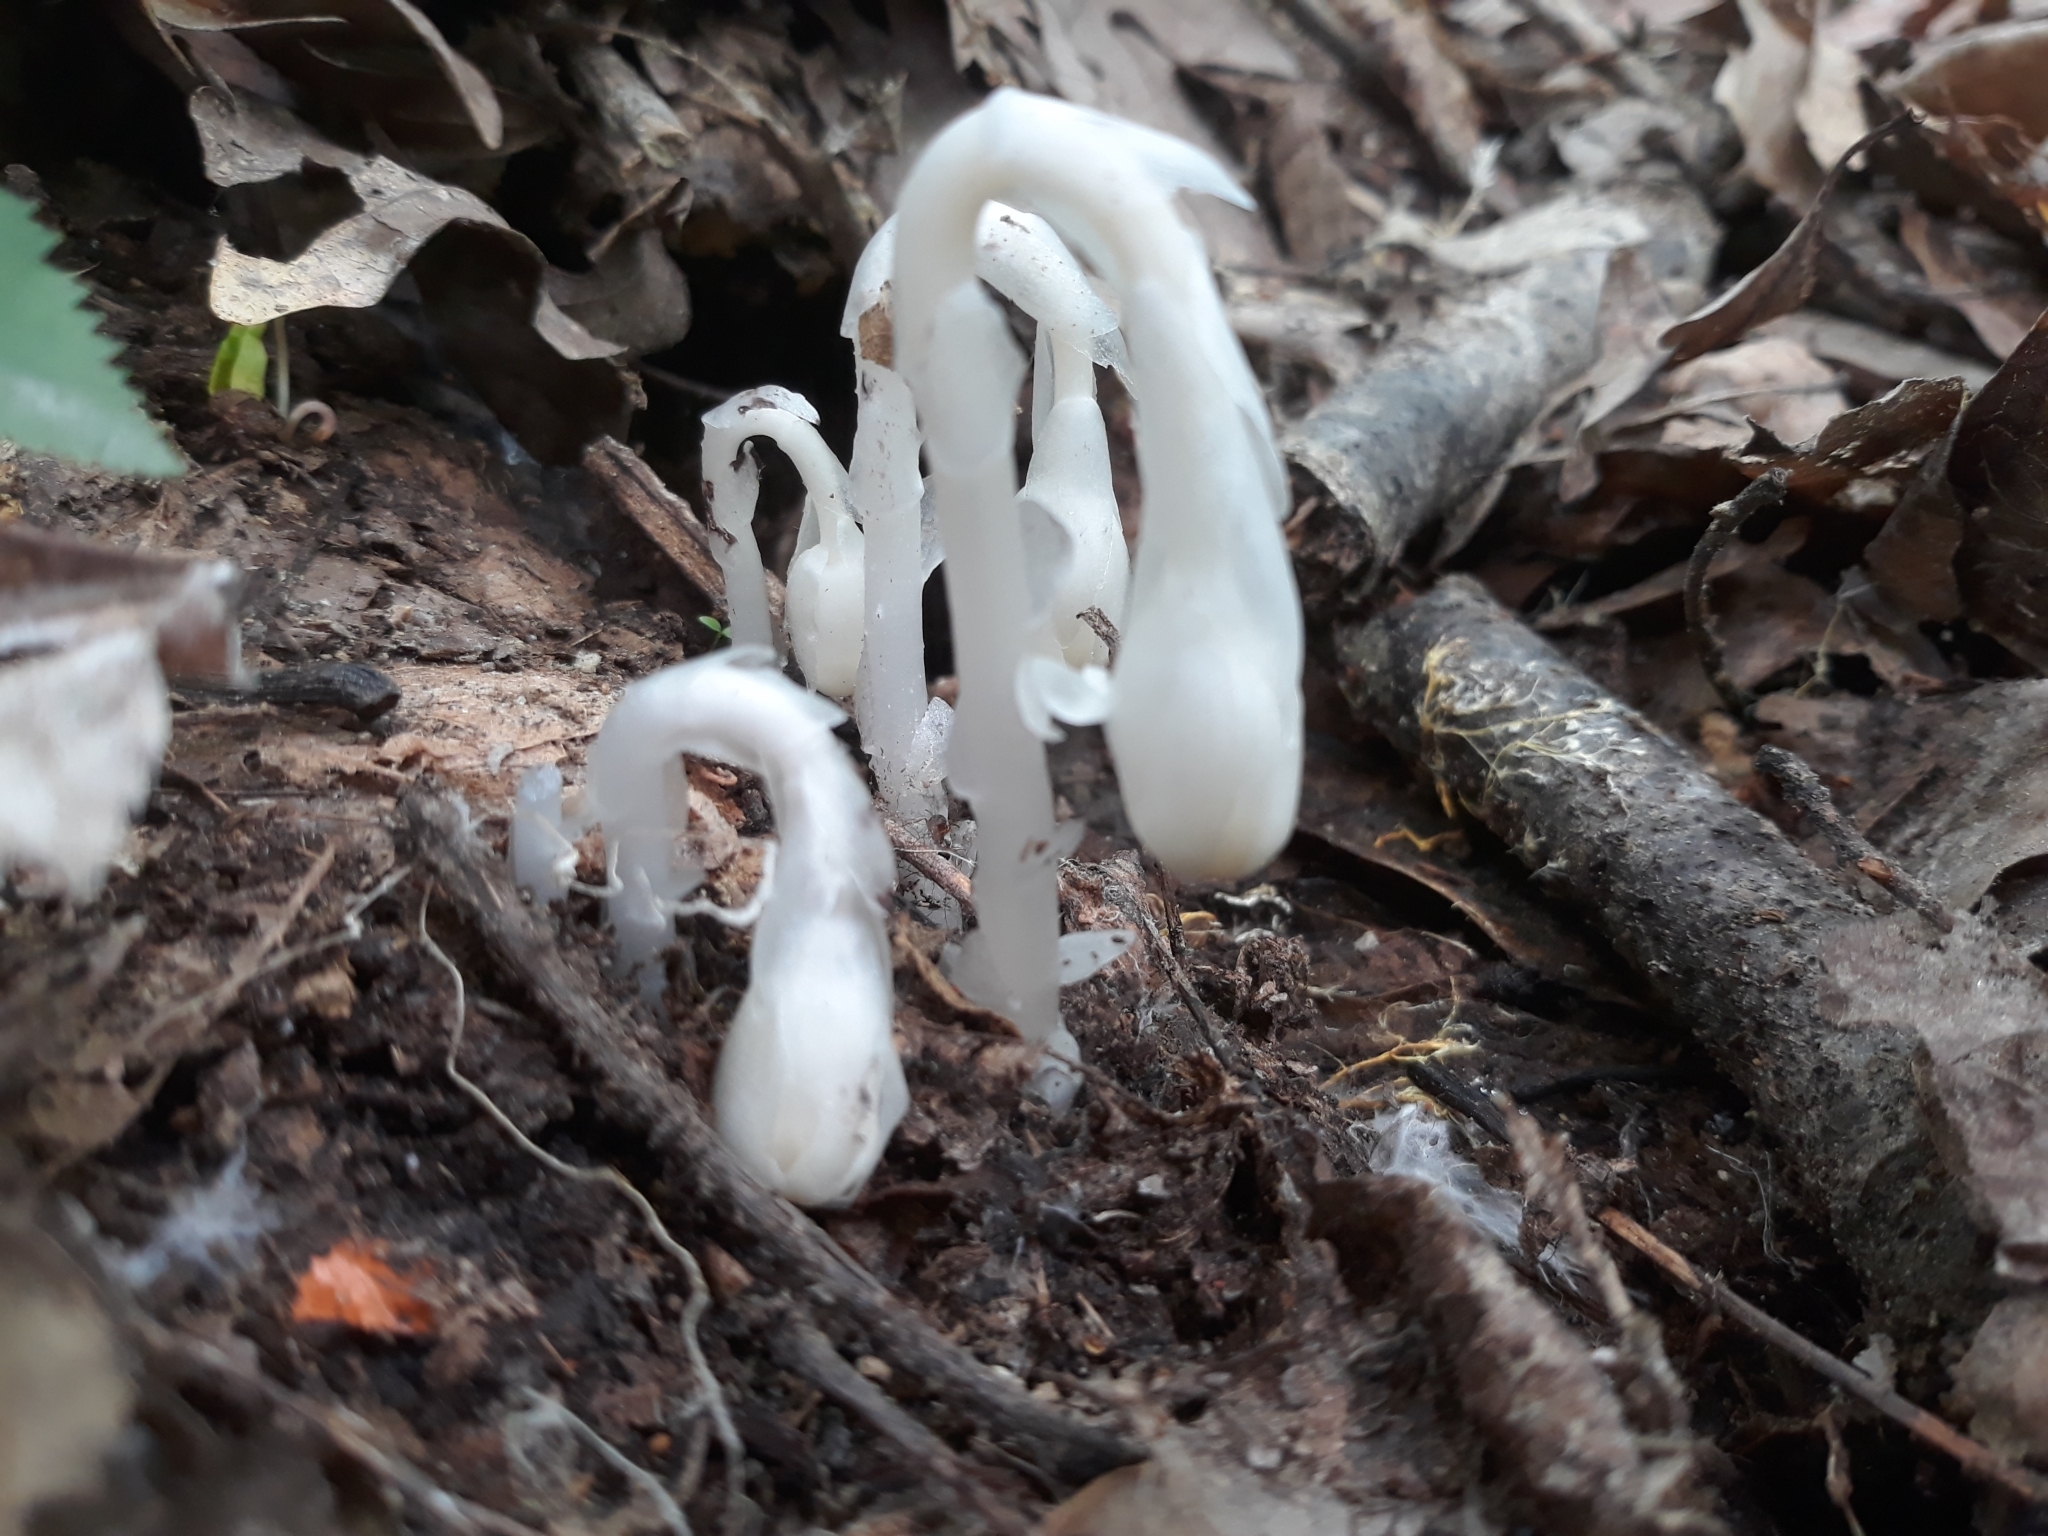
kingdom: Plantae
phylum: Tracheophyta
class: Magnoliopsida
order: Ericales
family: Ericaceae
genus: Monotropa
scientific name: Monotropa uniflora
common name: Convulsion root
